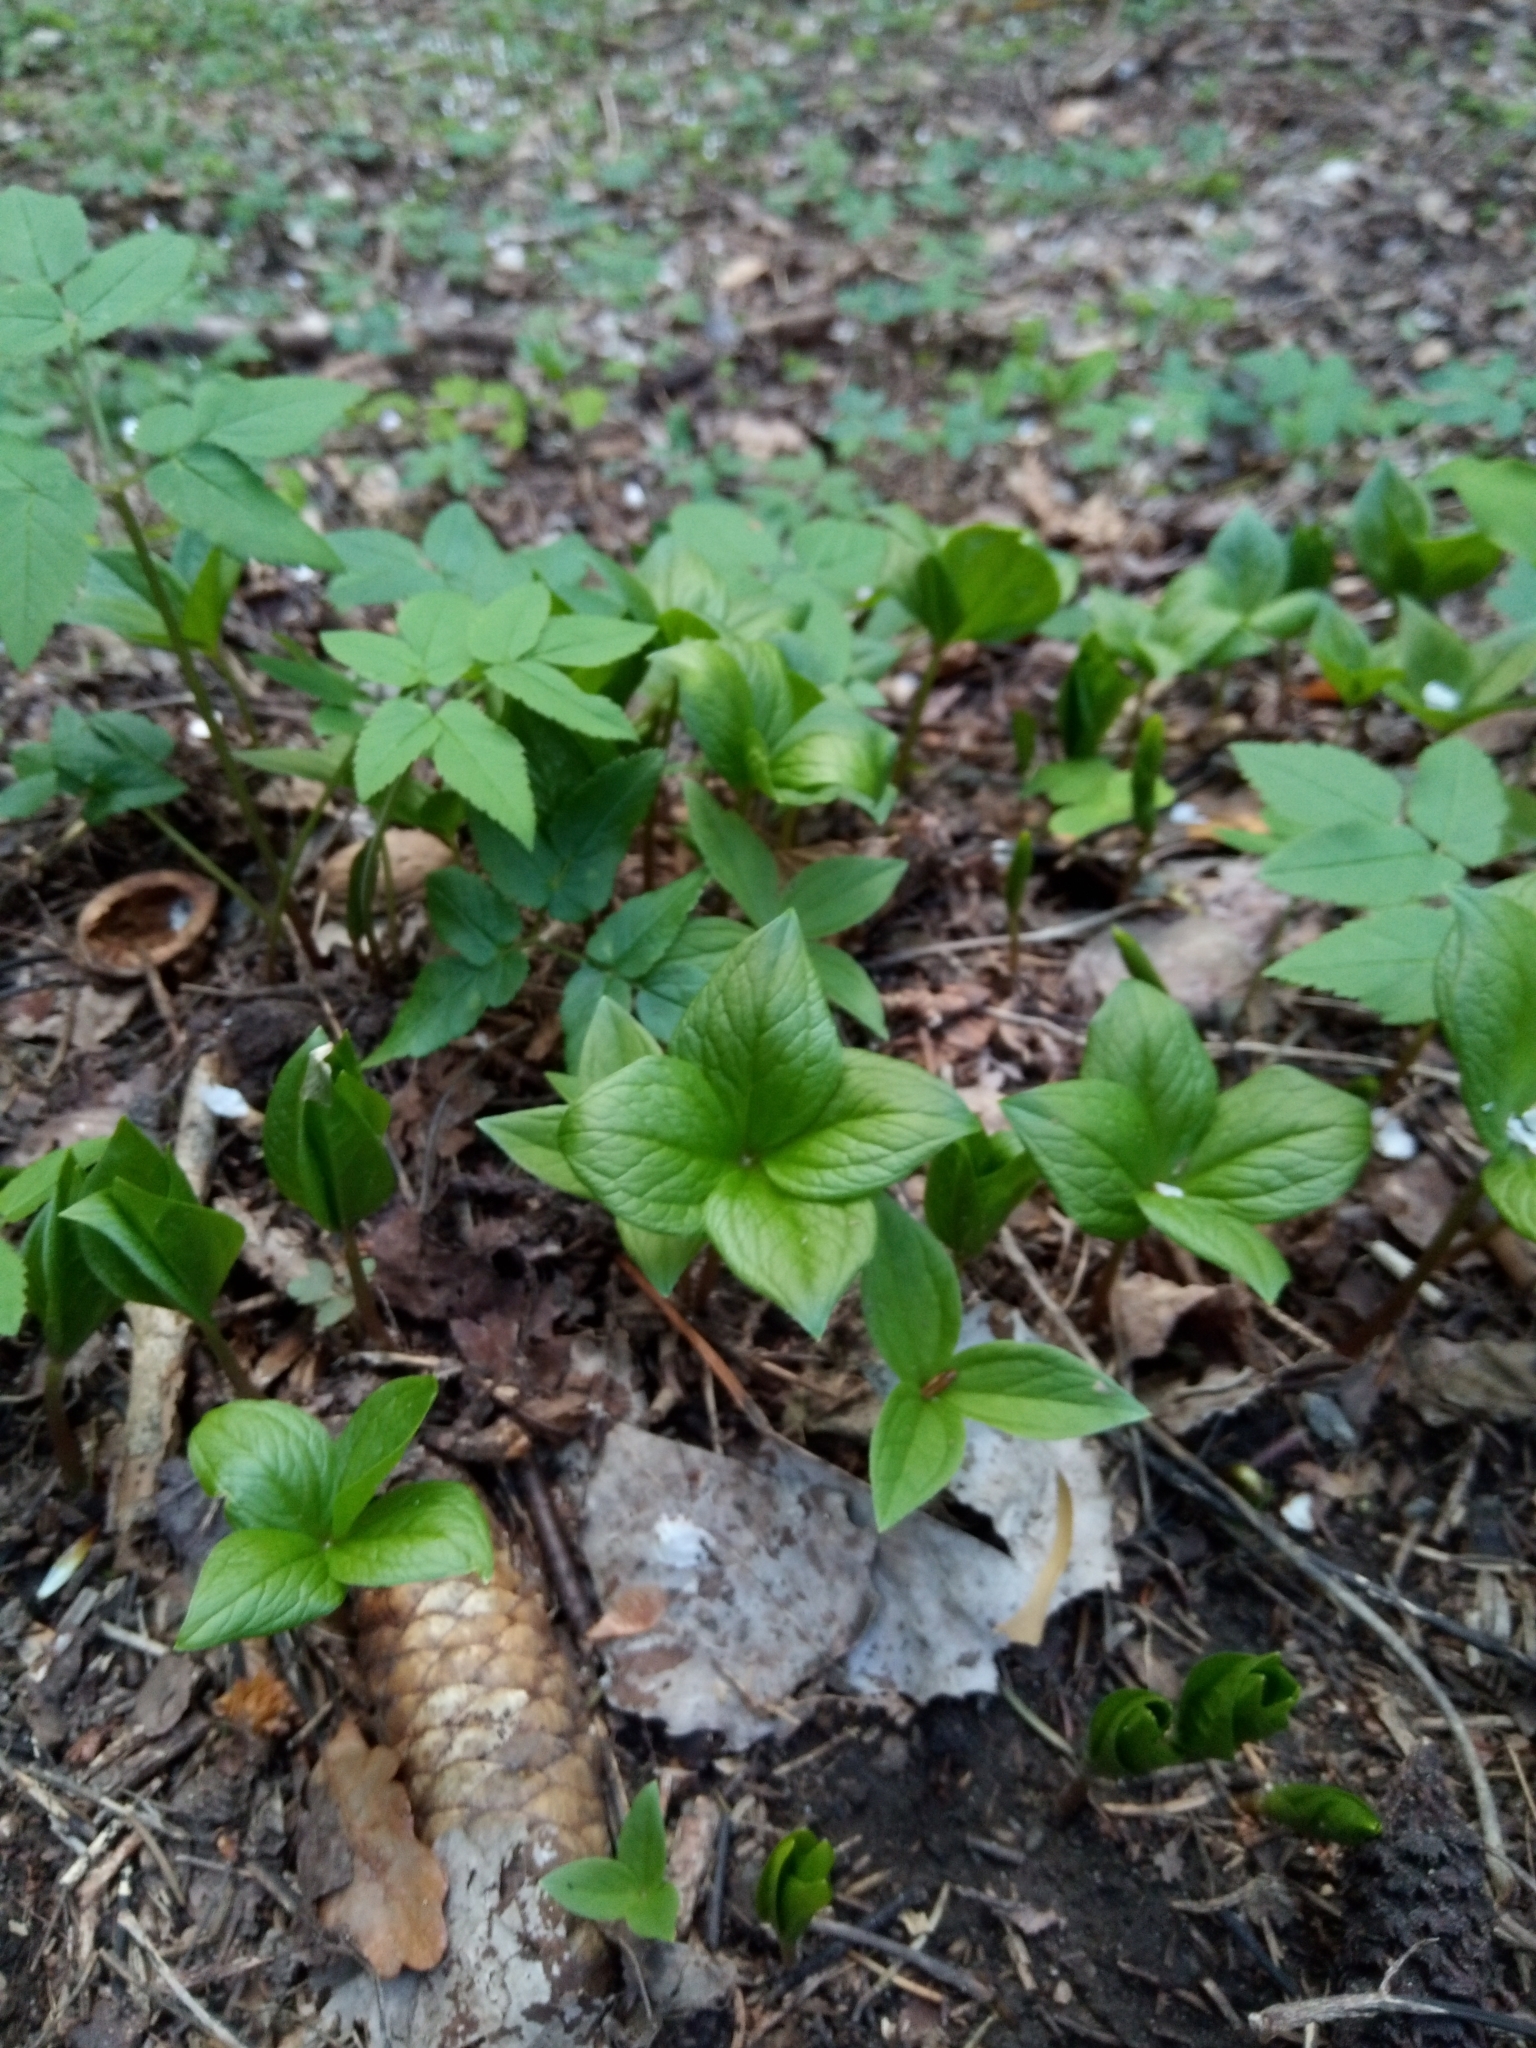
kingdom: Plantae
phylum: Tracheophyta
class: Liliopsida
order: Liliales
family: Melanthiaceae
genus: Paris
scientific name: Paris quadrifolia
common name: Herb-paris
